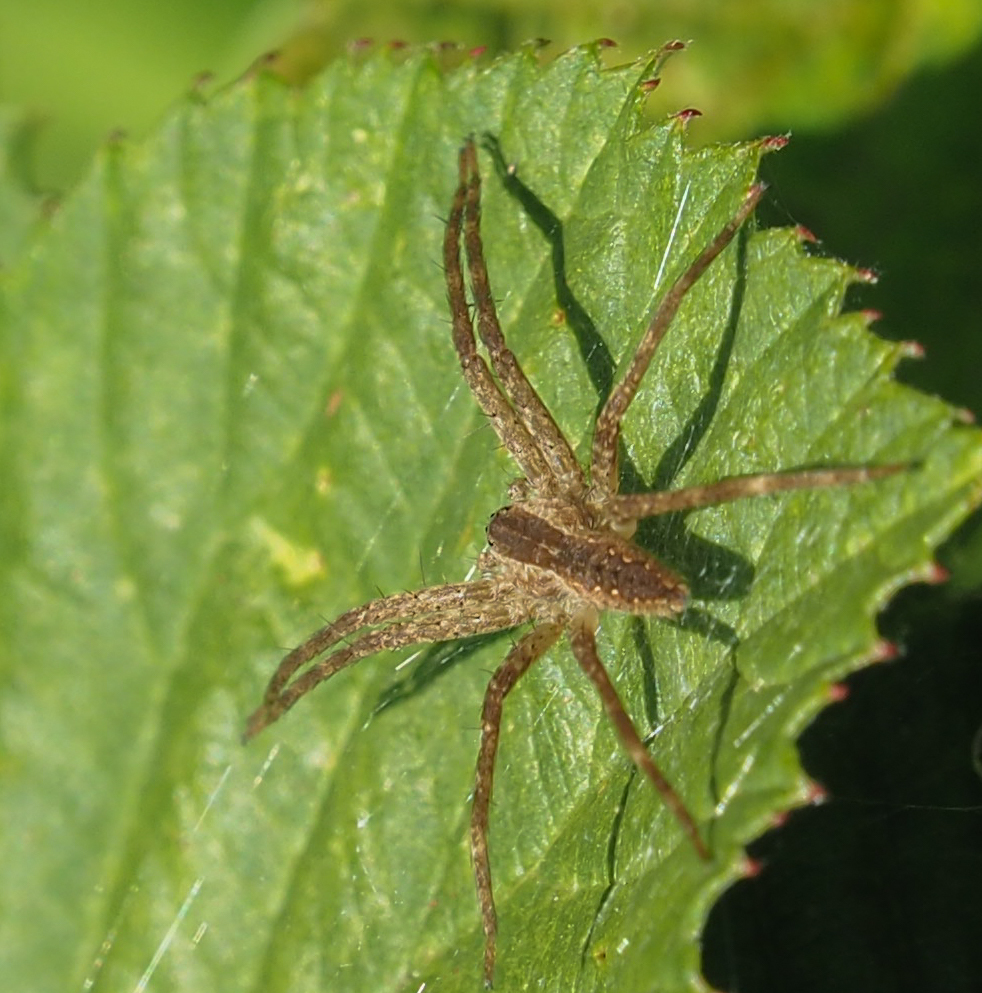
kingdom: Animalia
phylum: Arthropoda
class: Arachnida
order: Araneae
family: Pisauridae
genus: Pisaurina
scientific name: Pisaurina mira
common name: American nursery web spider
